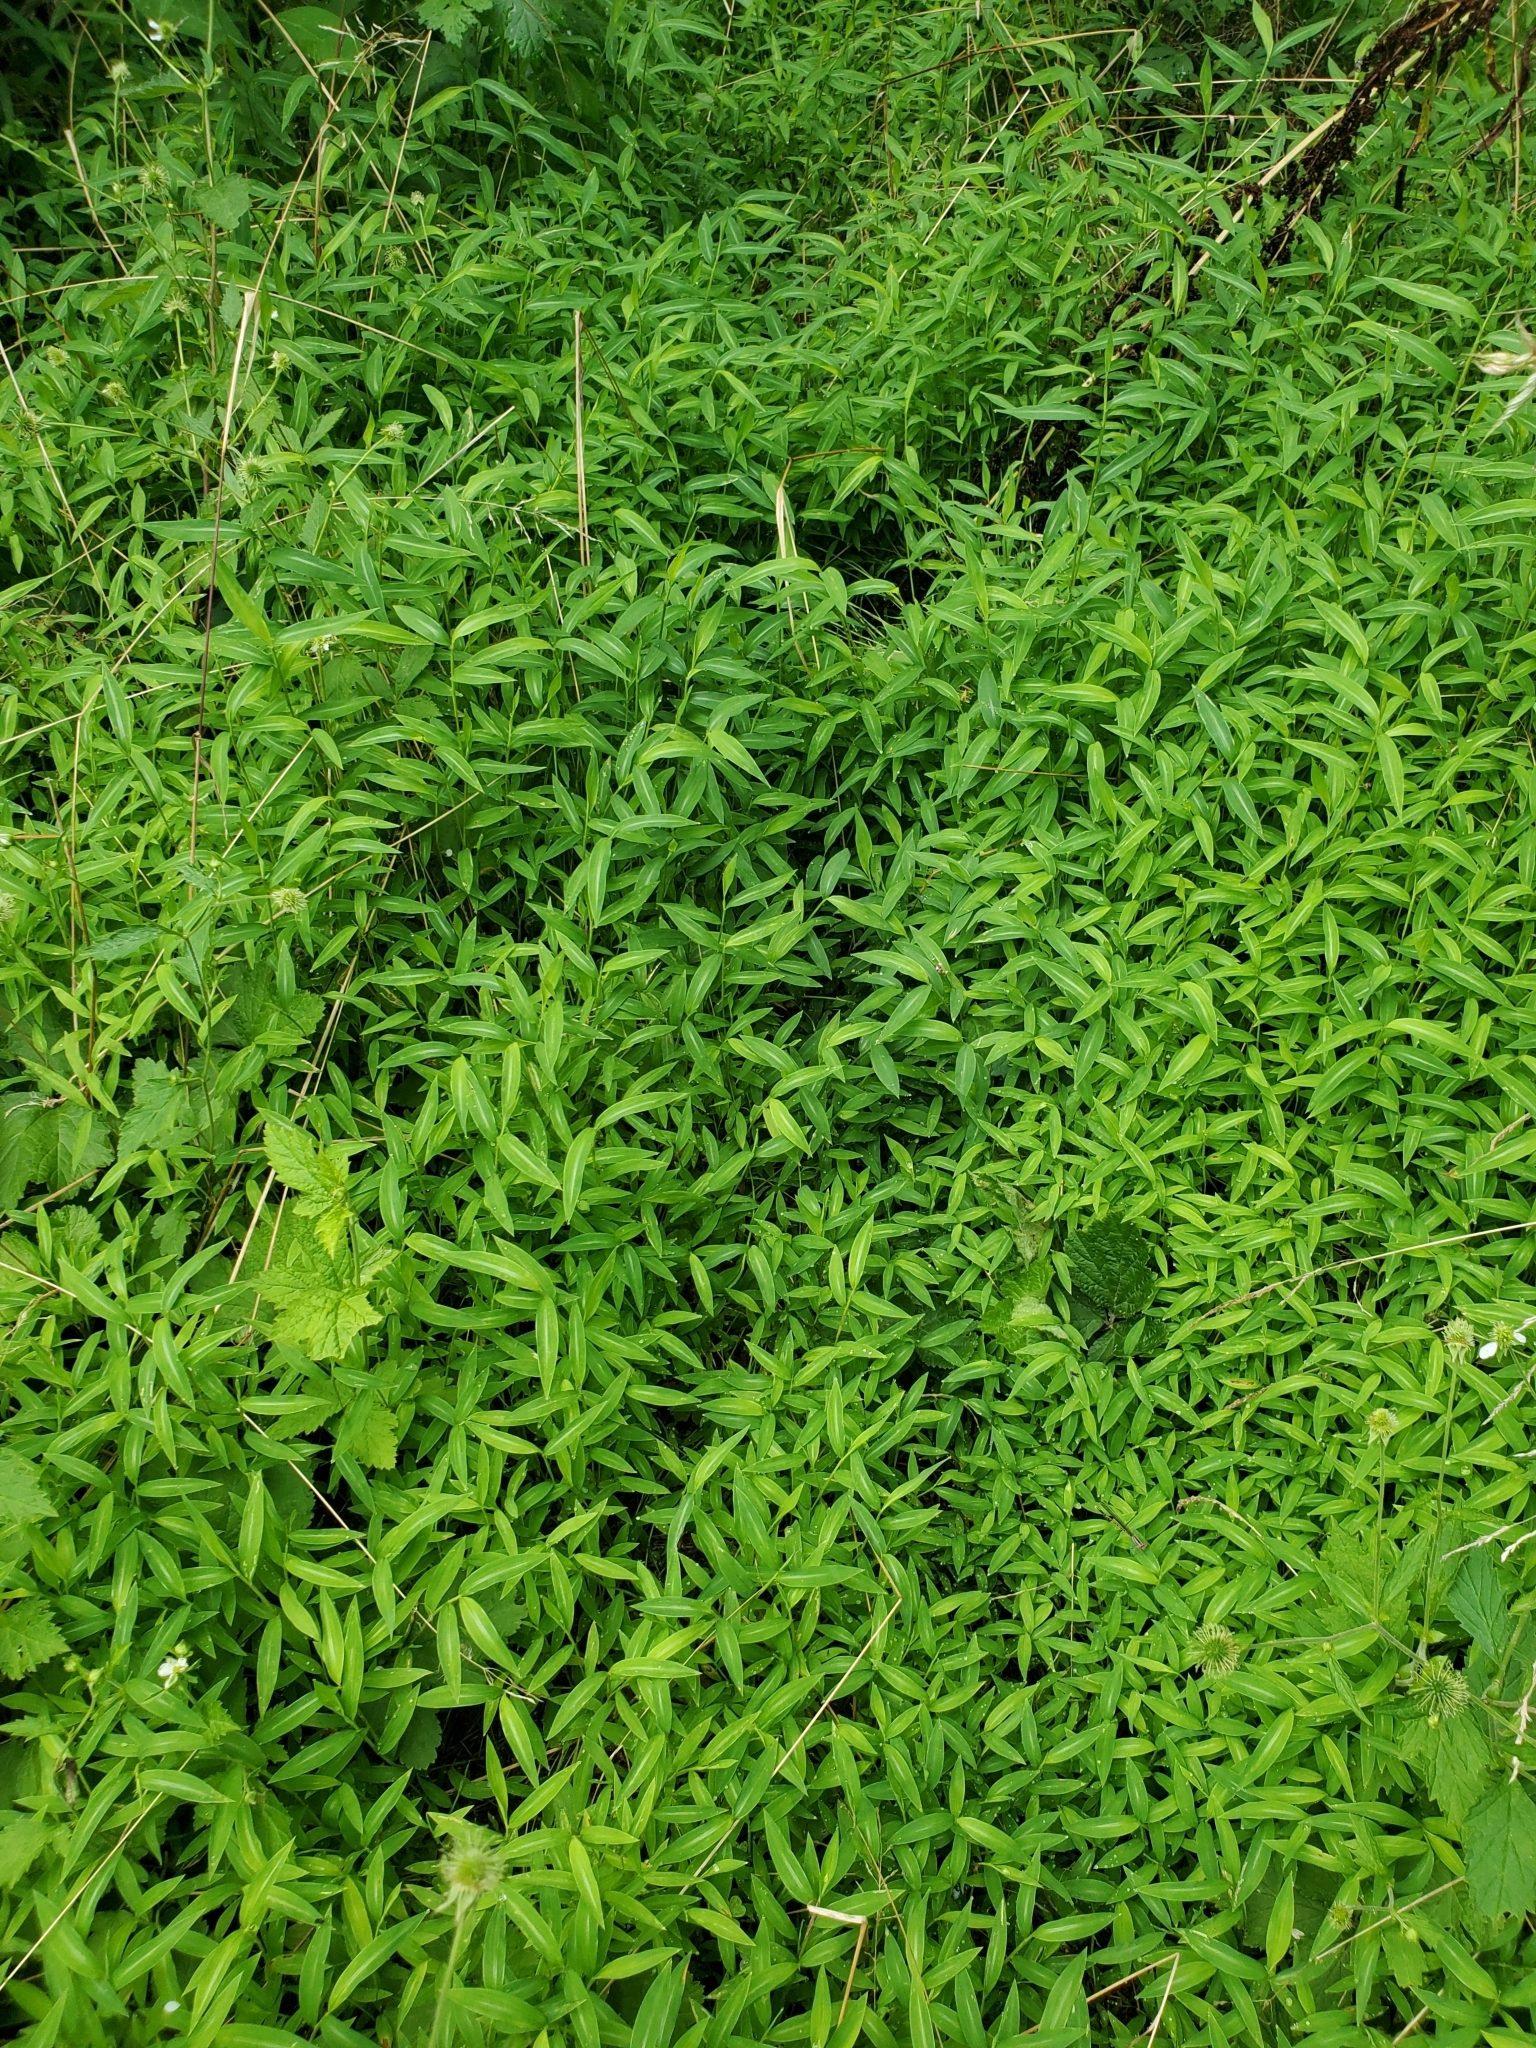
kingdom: Plantae
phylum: Tracheophyta
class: Liliopsida
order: Poales
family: Poaceae
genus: Microstegium
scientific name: Microstegium vimineum
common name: Japanese stiltgrass
